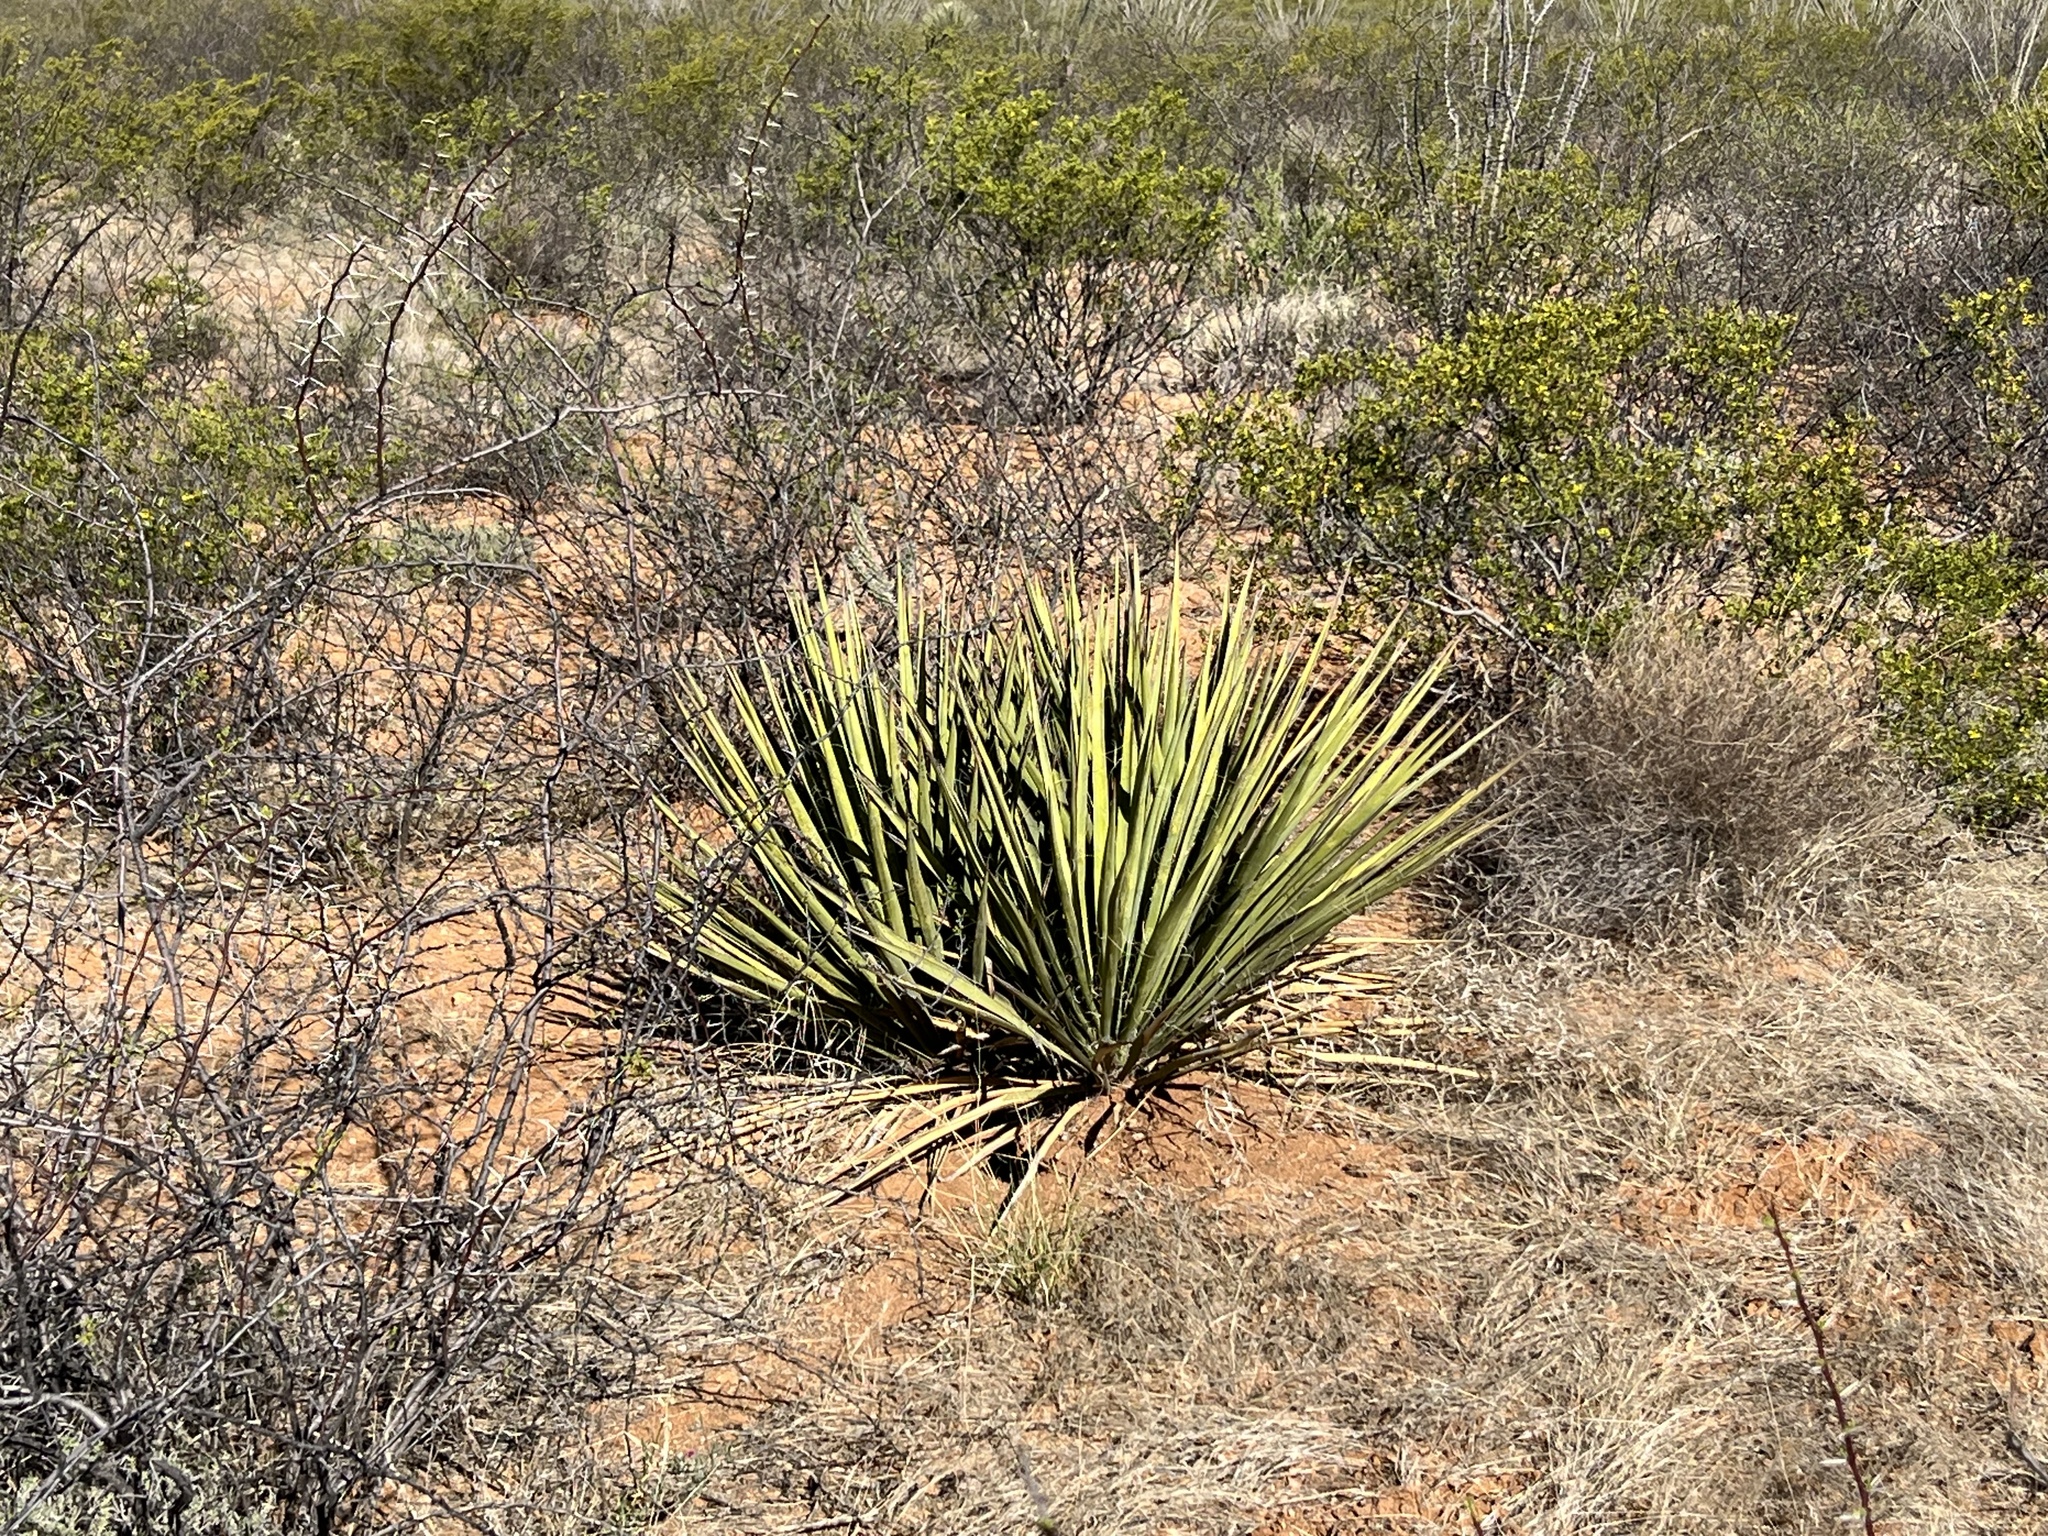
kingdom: Plantae
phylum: Tracheophyta
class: Liliopsida
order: Asparagales
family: Asparagaceae
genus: Yucca
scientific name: Yucca baccata
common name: Banana yucca
